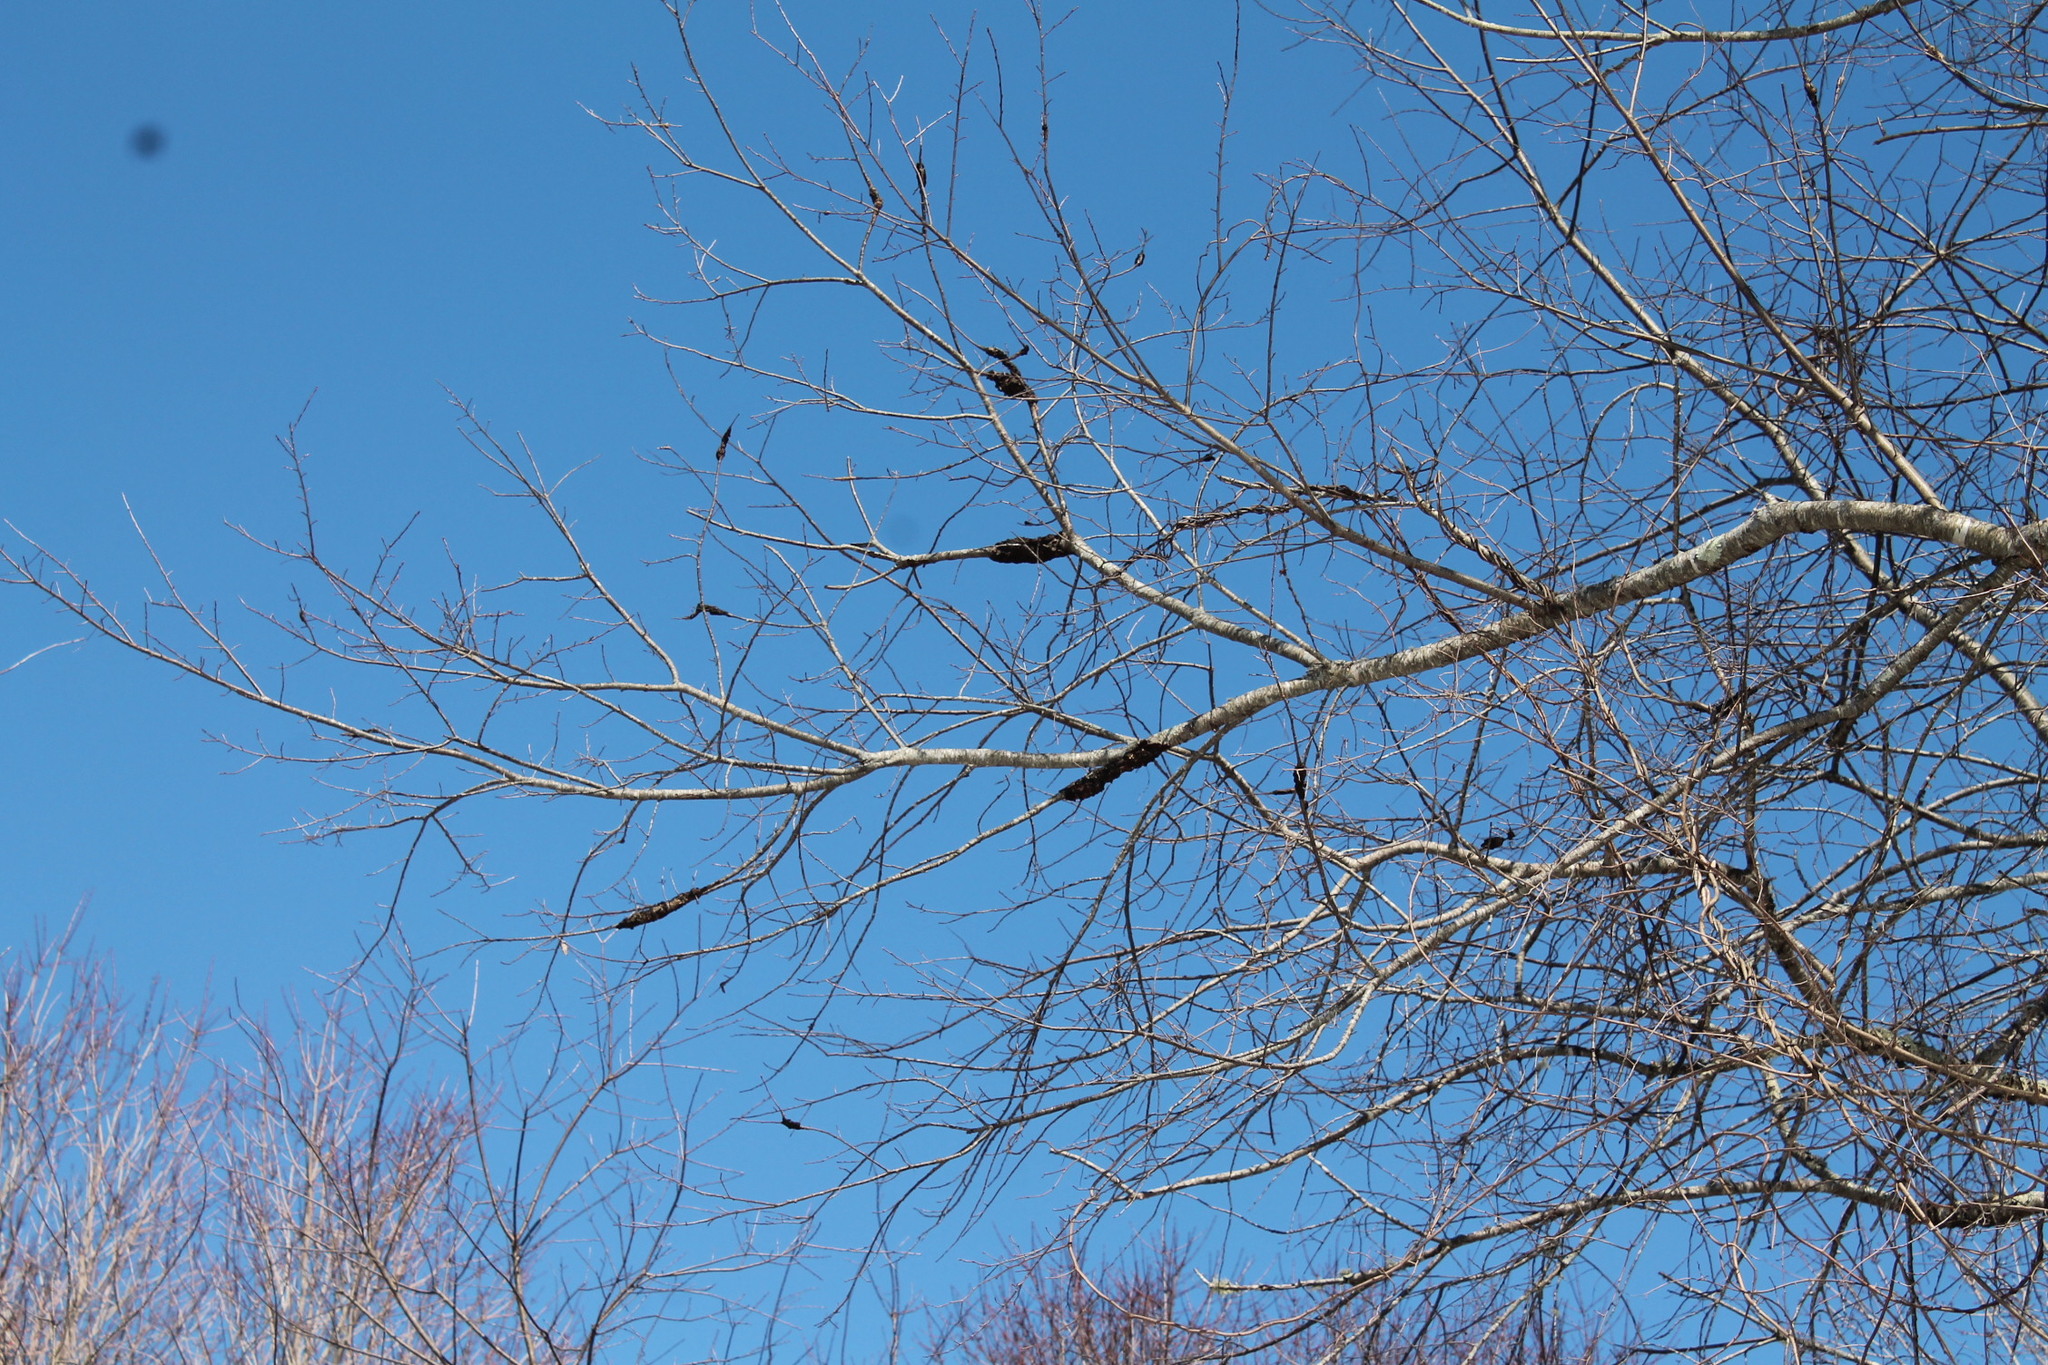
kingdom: Fungi
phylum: Ascomycota
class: Dothideomycetes
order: Venturiales
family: Venturiaceae
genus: Apiosporina
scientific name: Apiosporina morbosa
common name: Black knot
